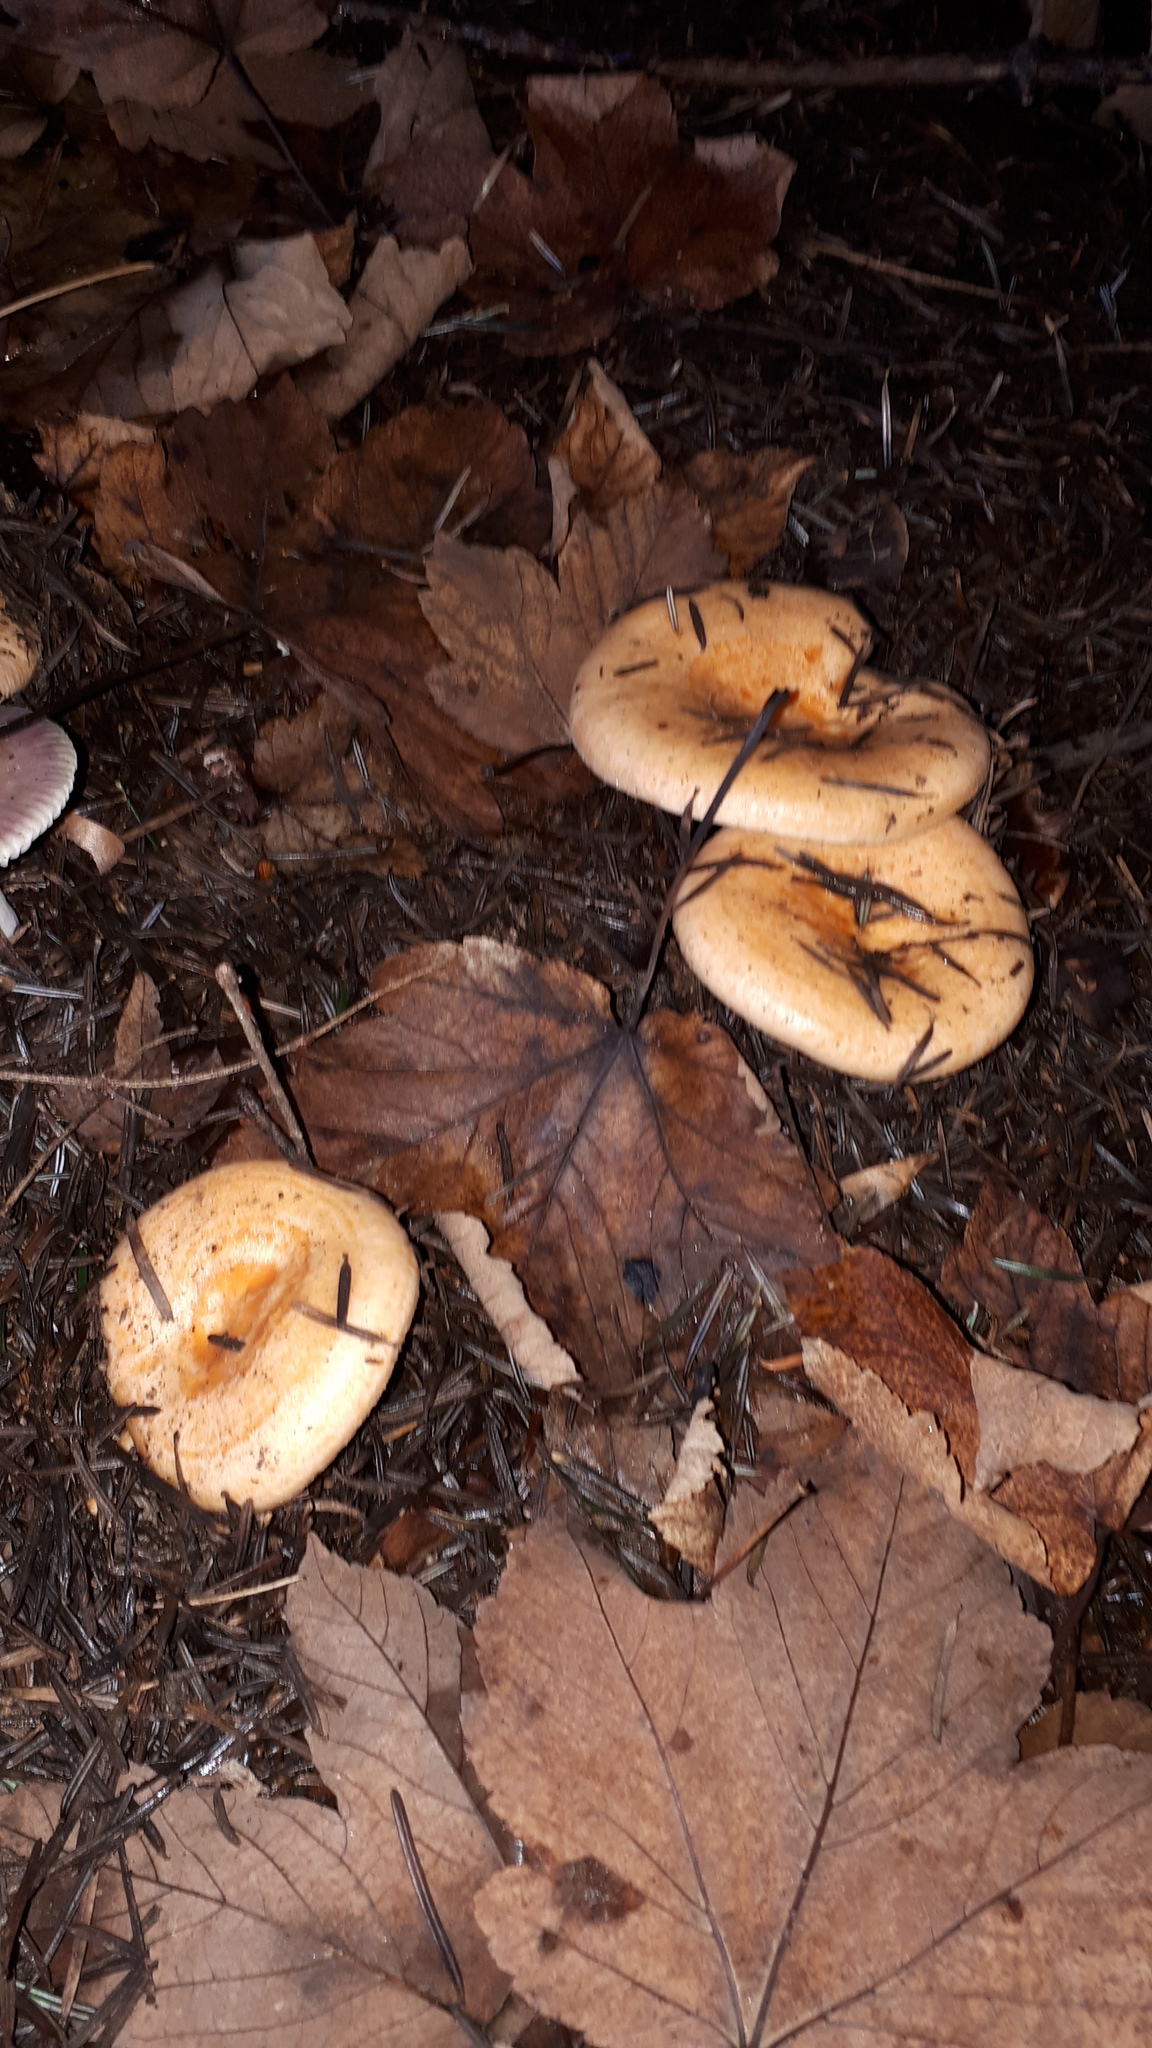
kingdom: Fungi
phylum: Basidiomycota
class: Agaricomycetes
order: Russulales
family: Russulaceae
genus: Lactarius
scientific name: Lactarius salmonicolor
